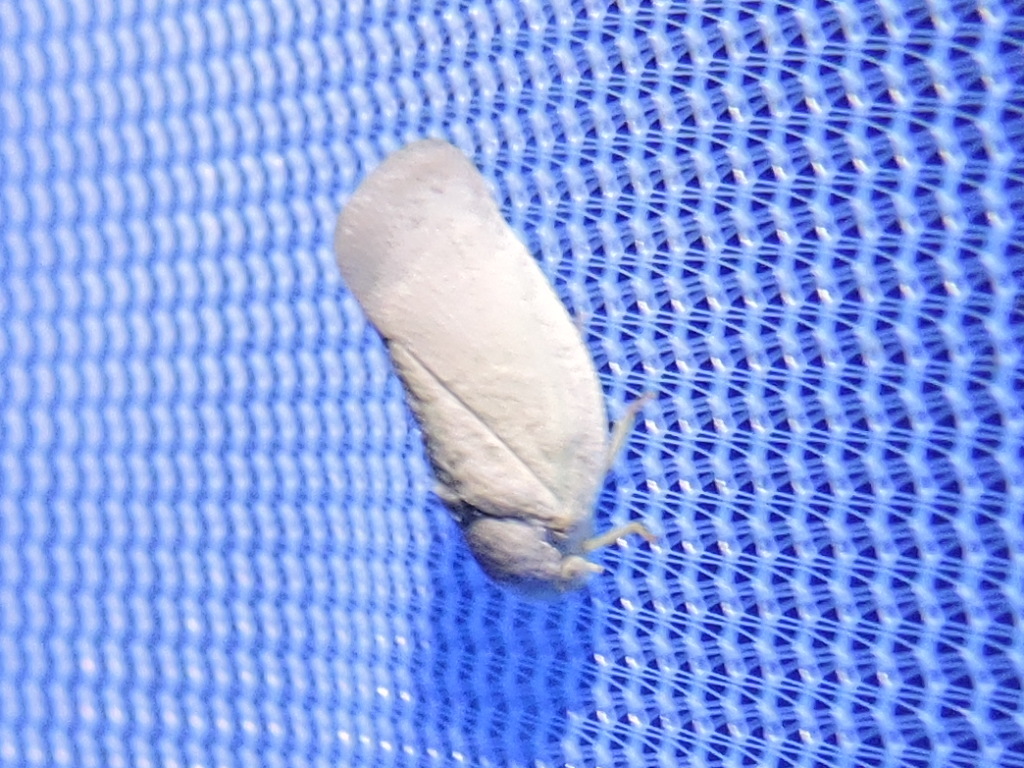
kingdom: Animalia
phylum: Arthropoda
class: Insecta
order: Hemiptera
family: Flatidae
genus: Flatormenis
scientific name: Flatormenis saucia
